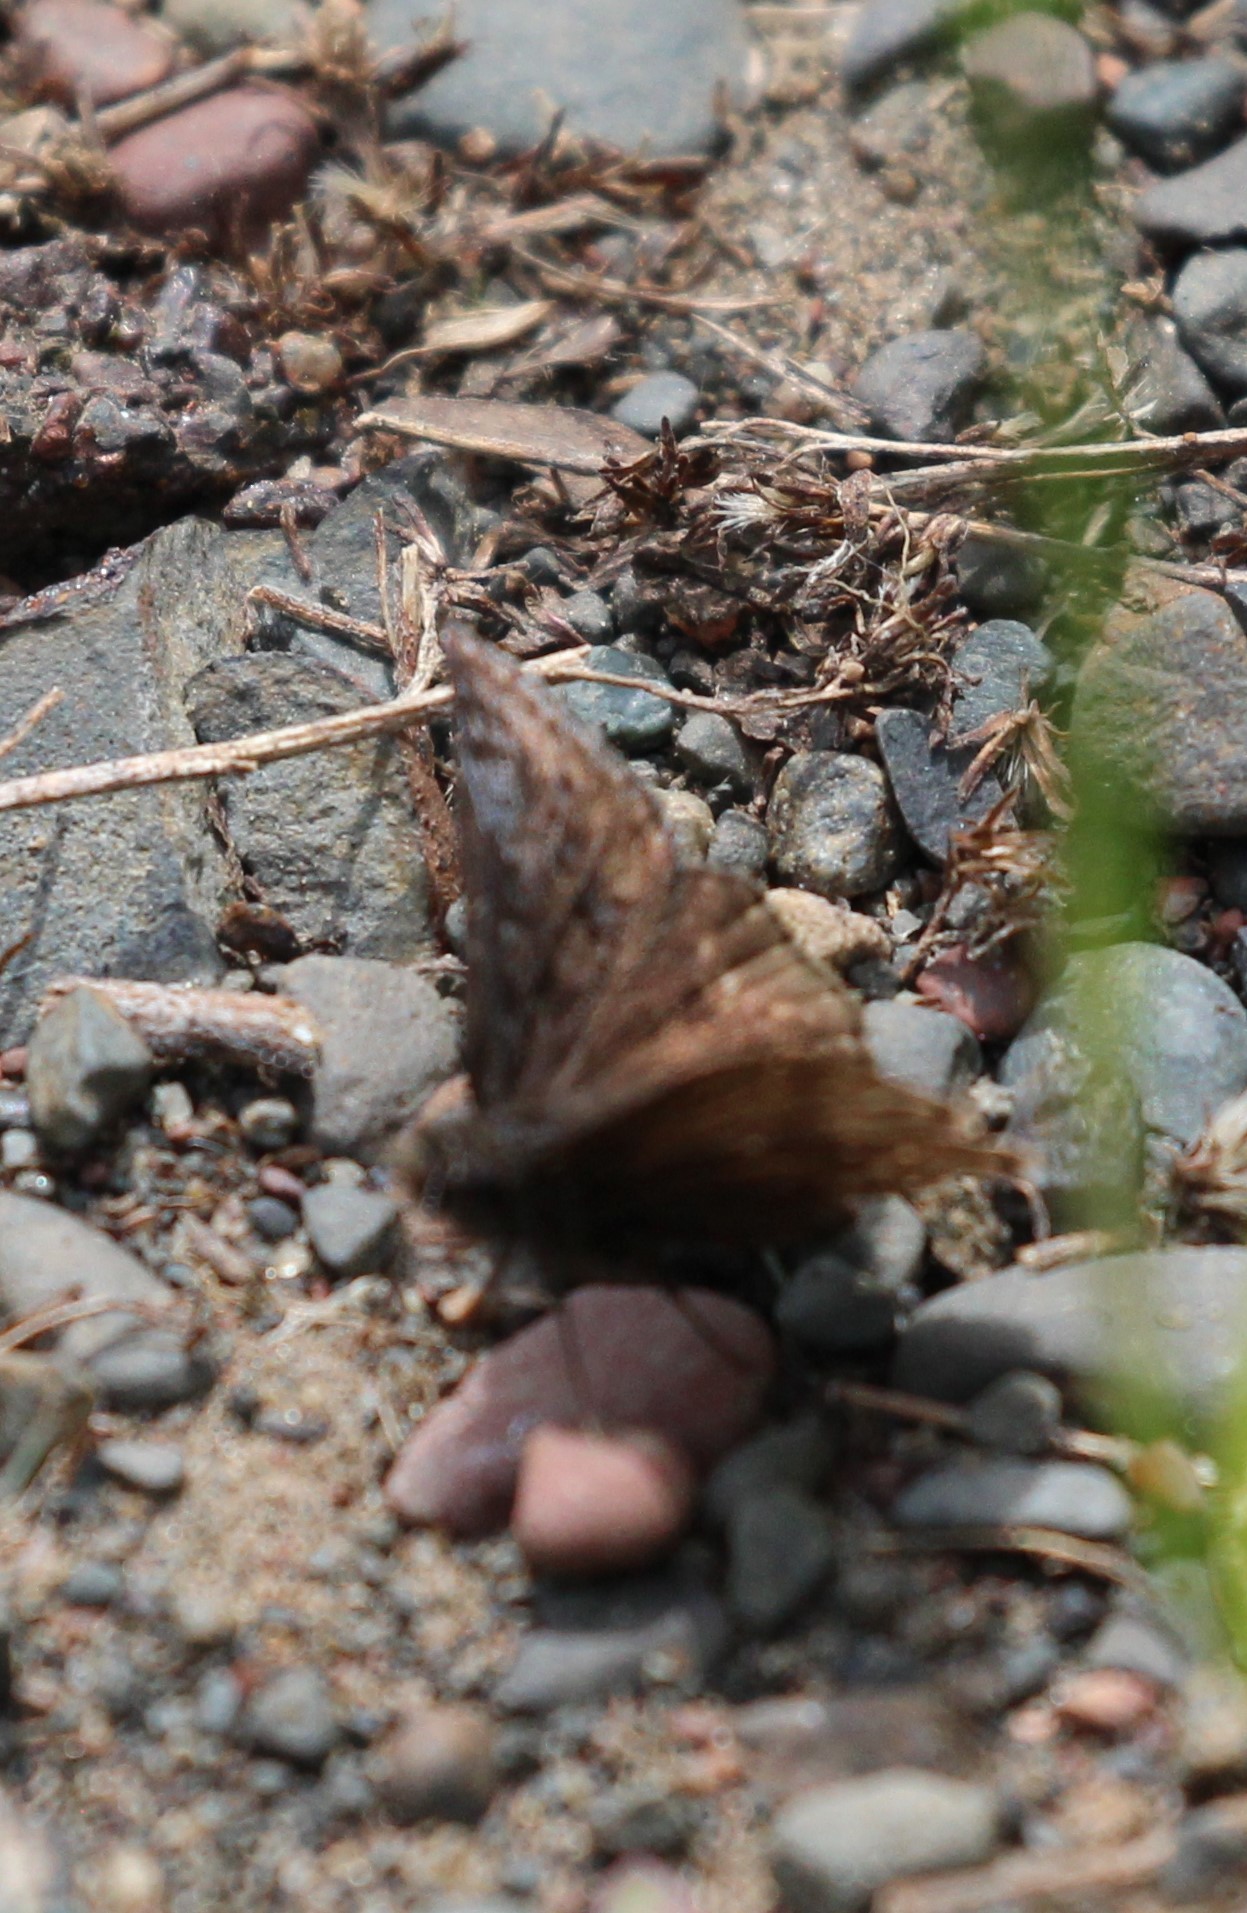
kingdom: Animalia
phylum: Arthropoda
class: Insecta
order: Lepidoptera
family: Hesperiidae
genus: Erynnis
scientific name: Erynnis icelus
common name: Dreamy duskywing
